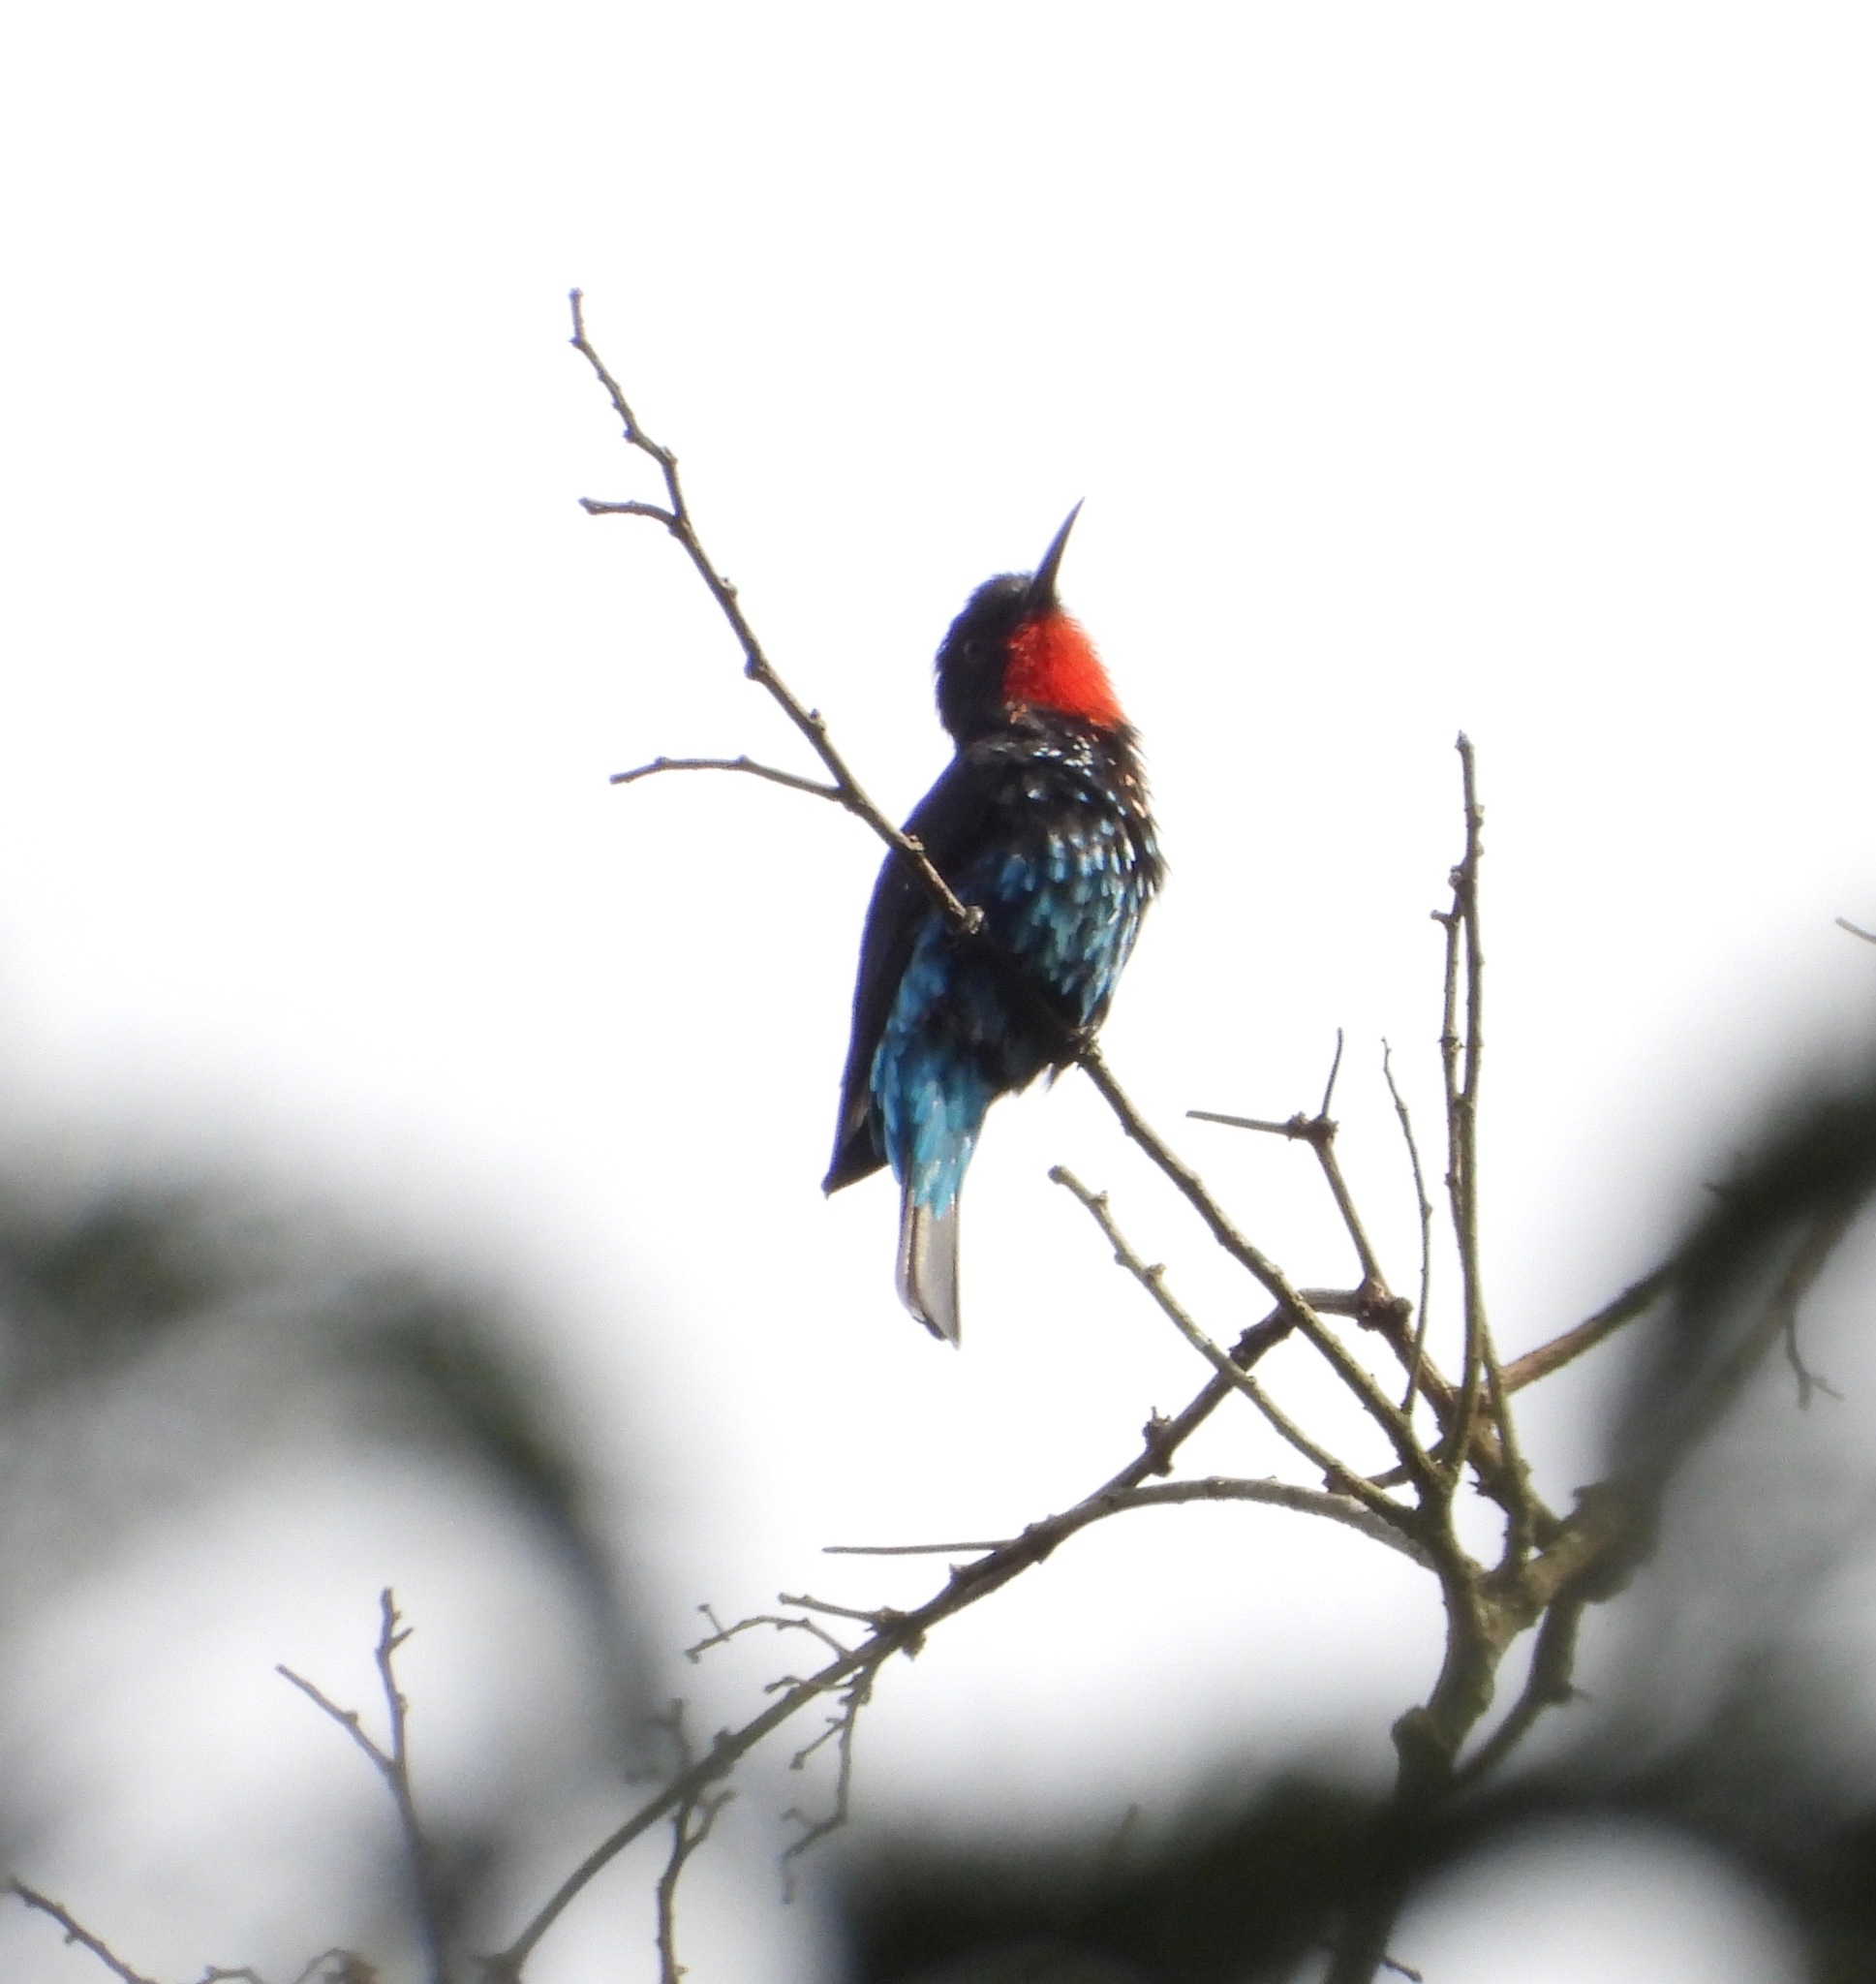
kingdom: Animalia
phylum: Chordata
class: Aves
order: Coraciiformes
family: Meropidae
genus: Merops
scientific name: Merops gularis
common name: Black bee-eater
